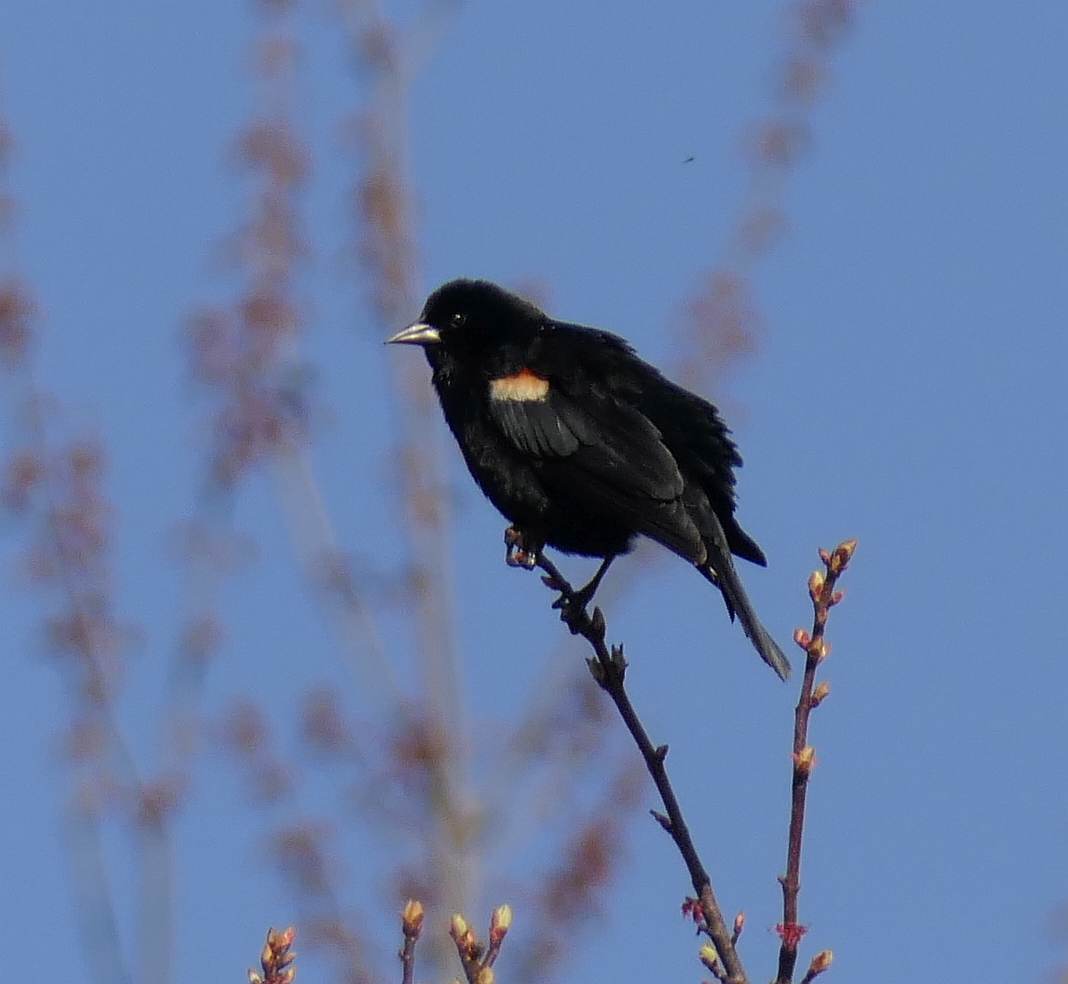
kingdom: Animalia
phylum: Chordata
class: Aves
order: Passeriformes
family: Icteridae
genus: Agelaius
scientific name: Agelaius phoeniceus
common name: Red-winged blackbird
